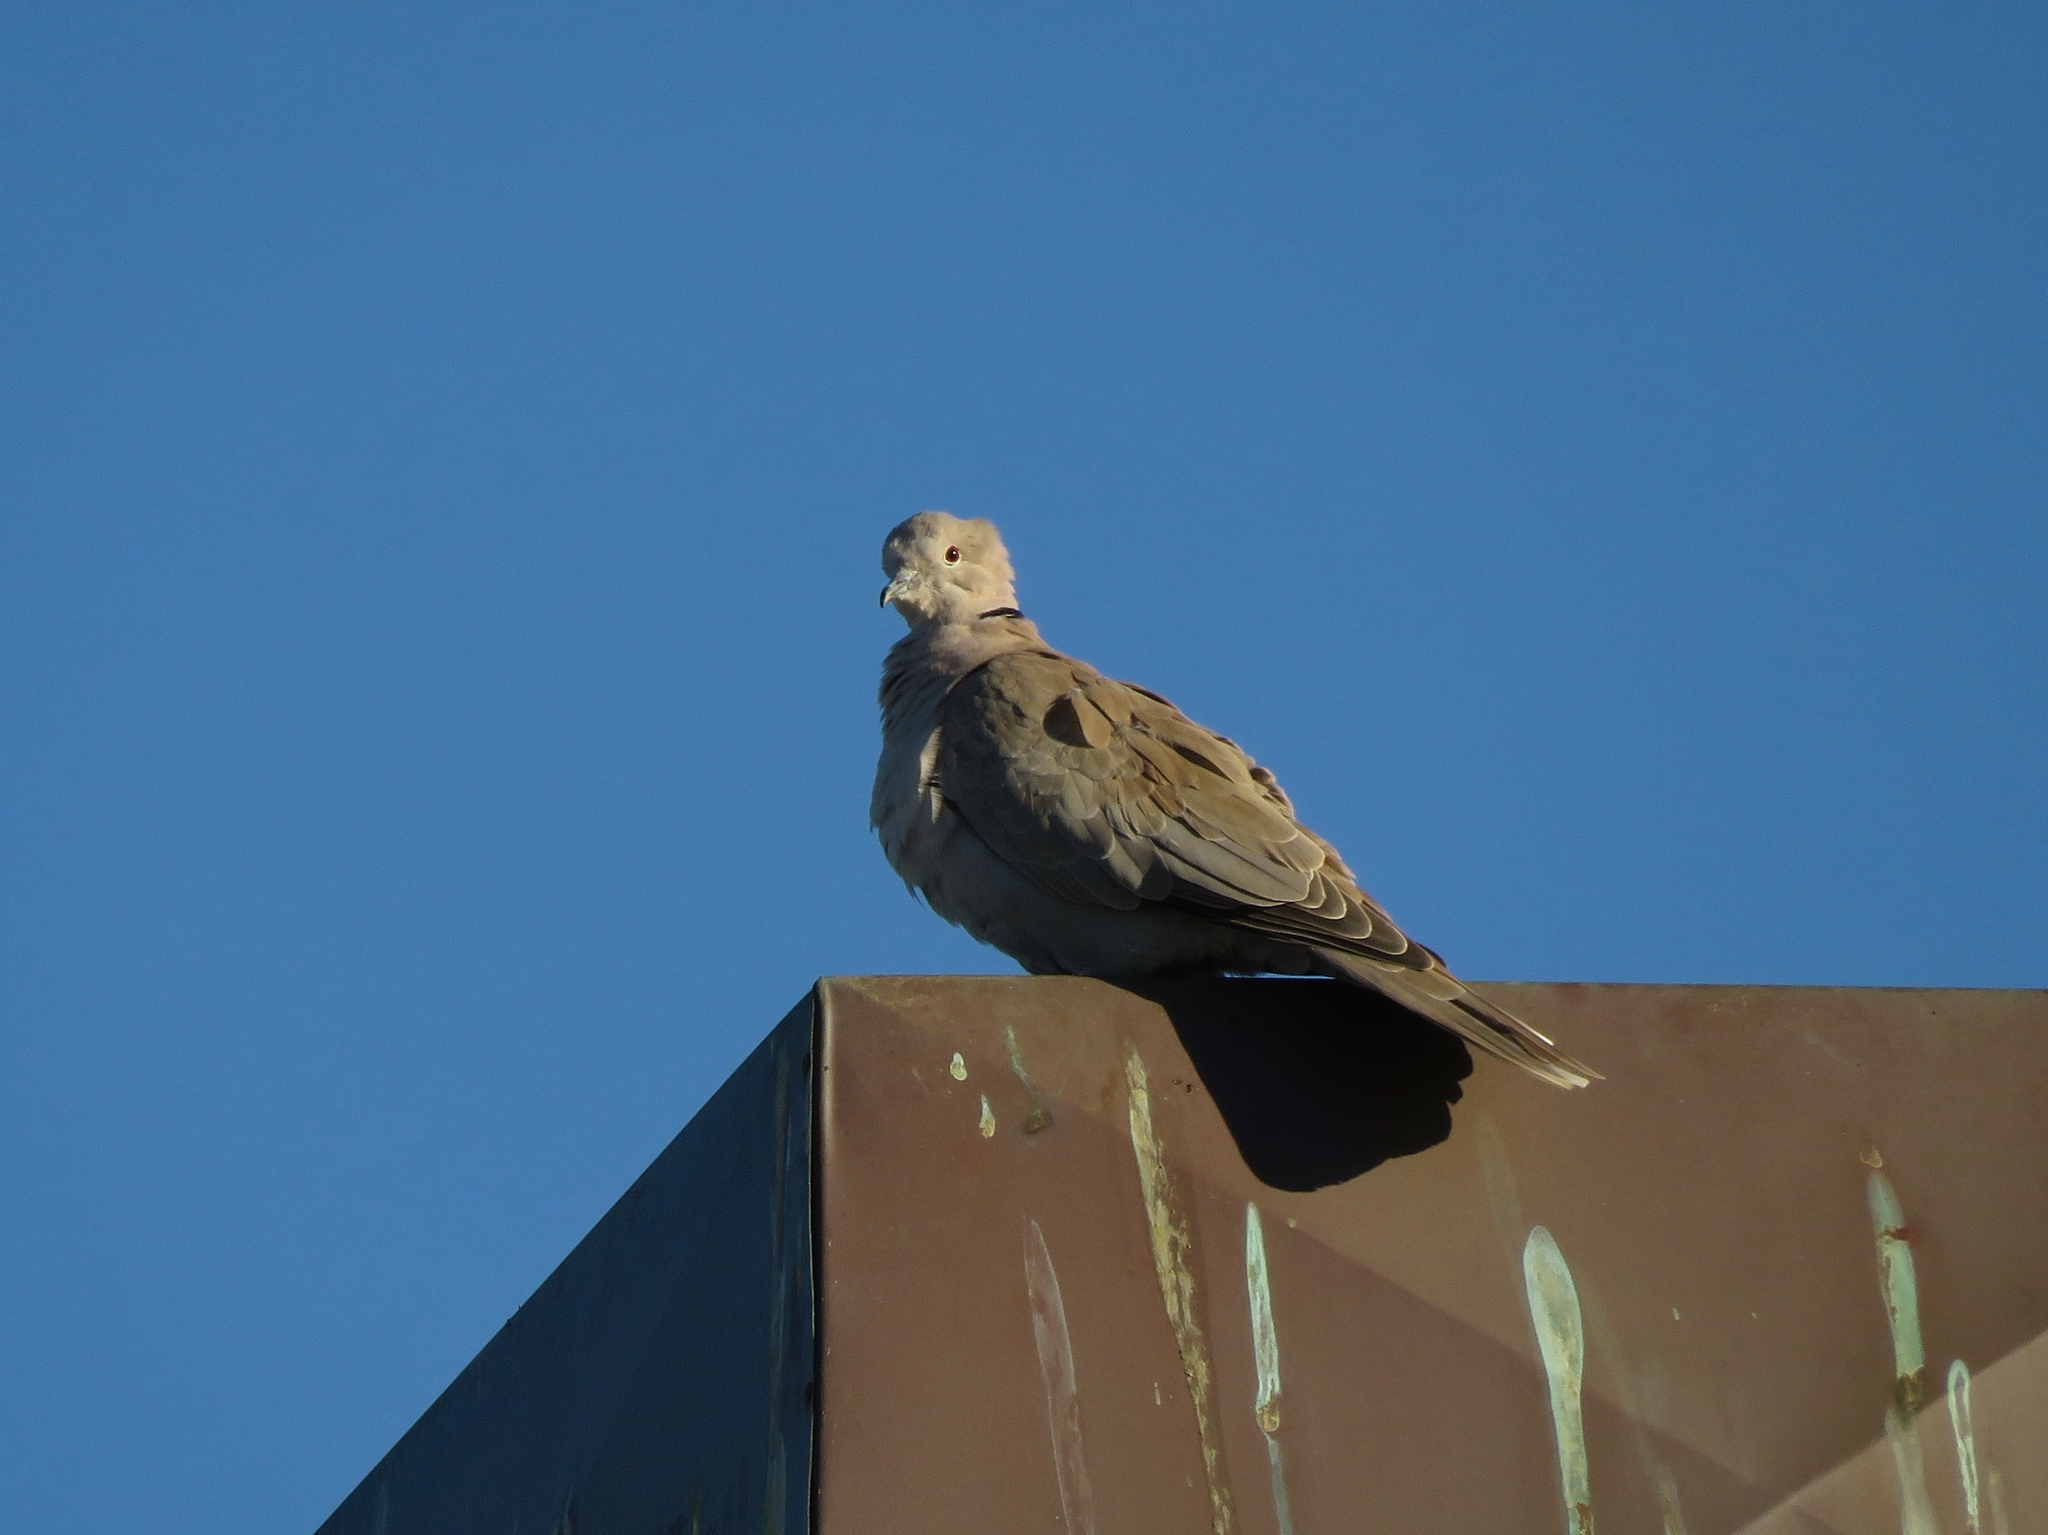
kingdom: Animalia
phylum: Chordata
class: Aves
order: Columbiformes
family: Columbidae
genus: Streptopelia
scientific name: Streptopelia decaocto
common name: Eurasian collared dove
